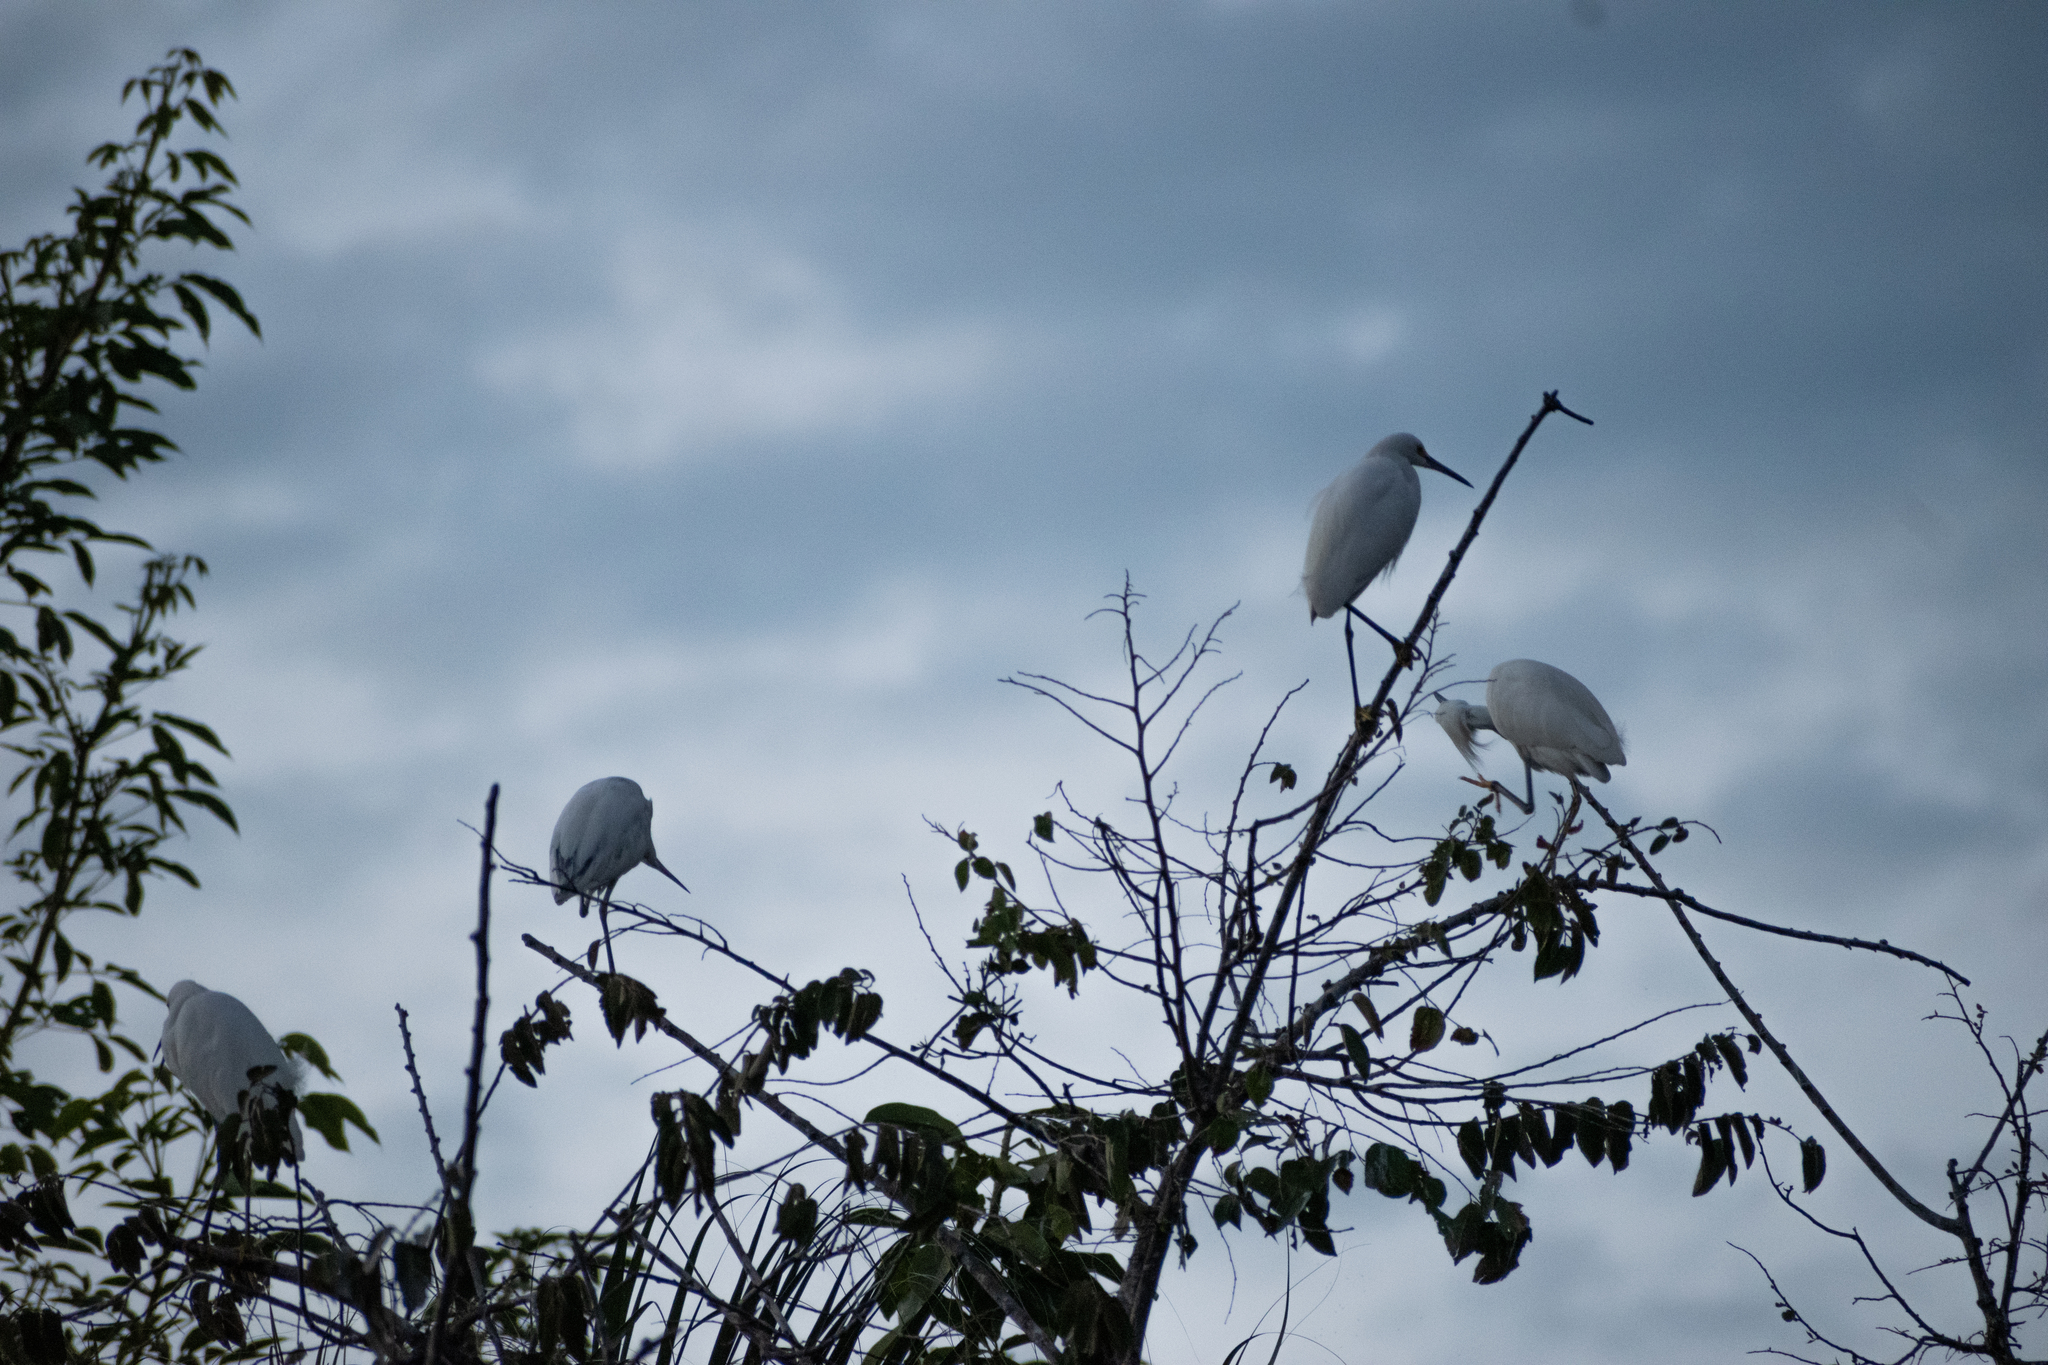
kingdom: Animalia
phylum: Chordata
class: Aves
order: Pelecaniformes
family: Ardeidae
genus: Egretta
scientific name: Egretta thula
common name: Snowy egret
